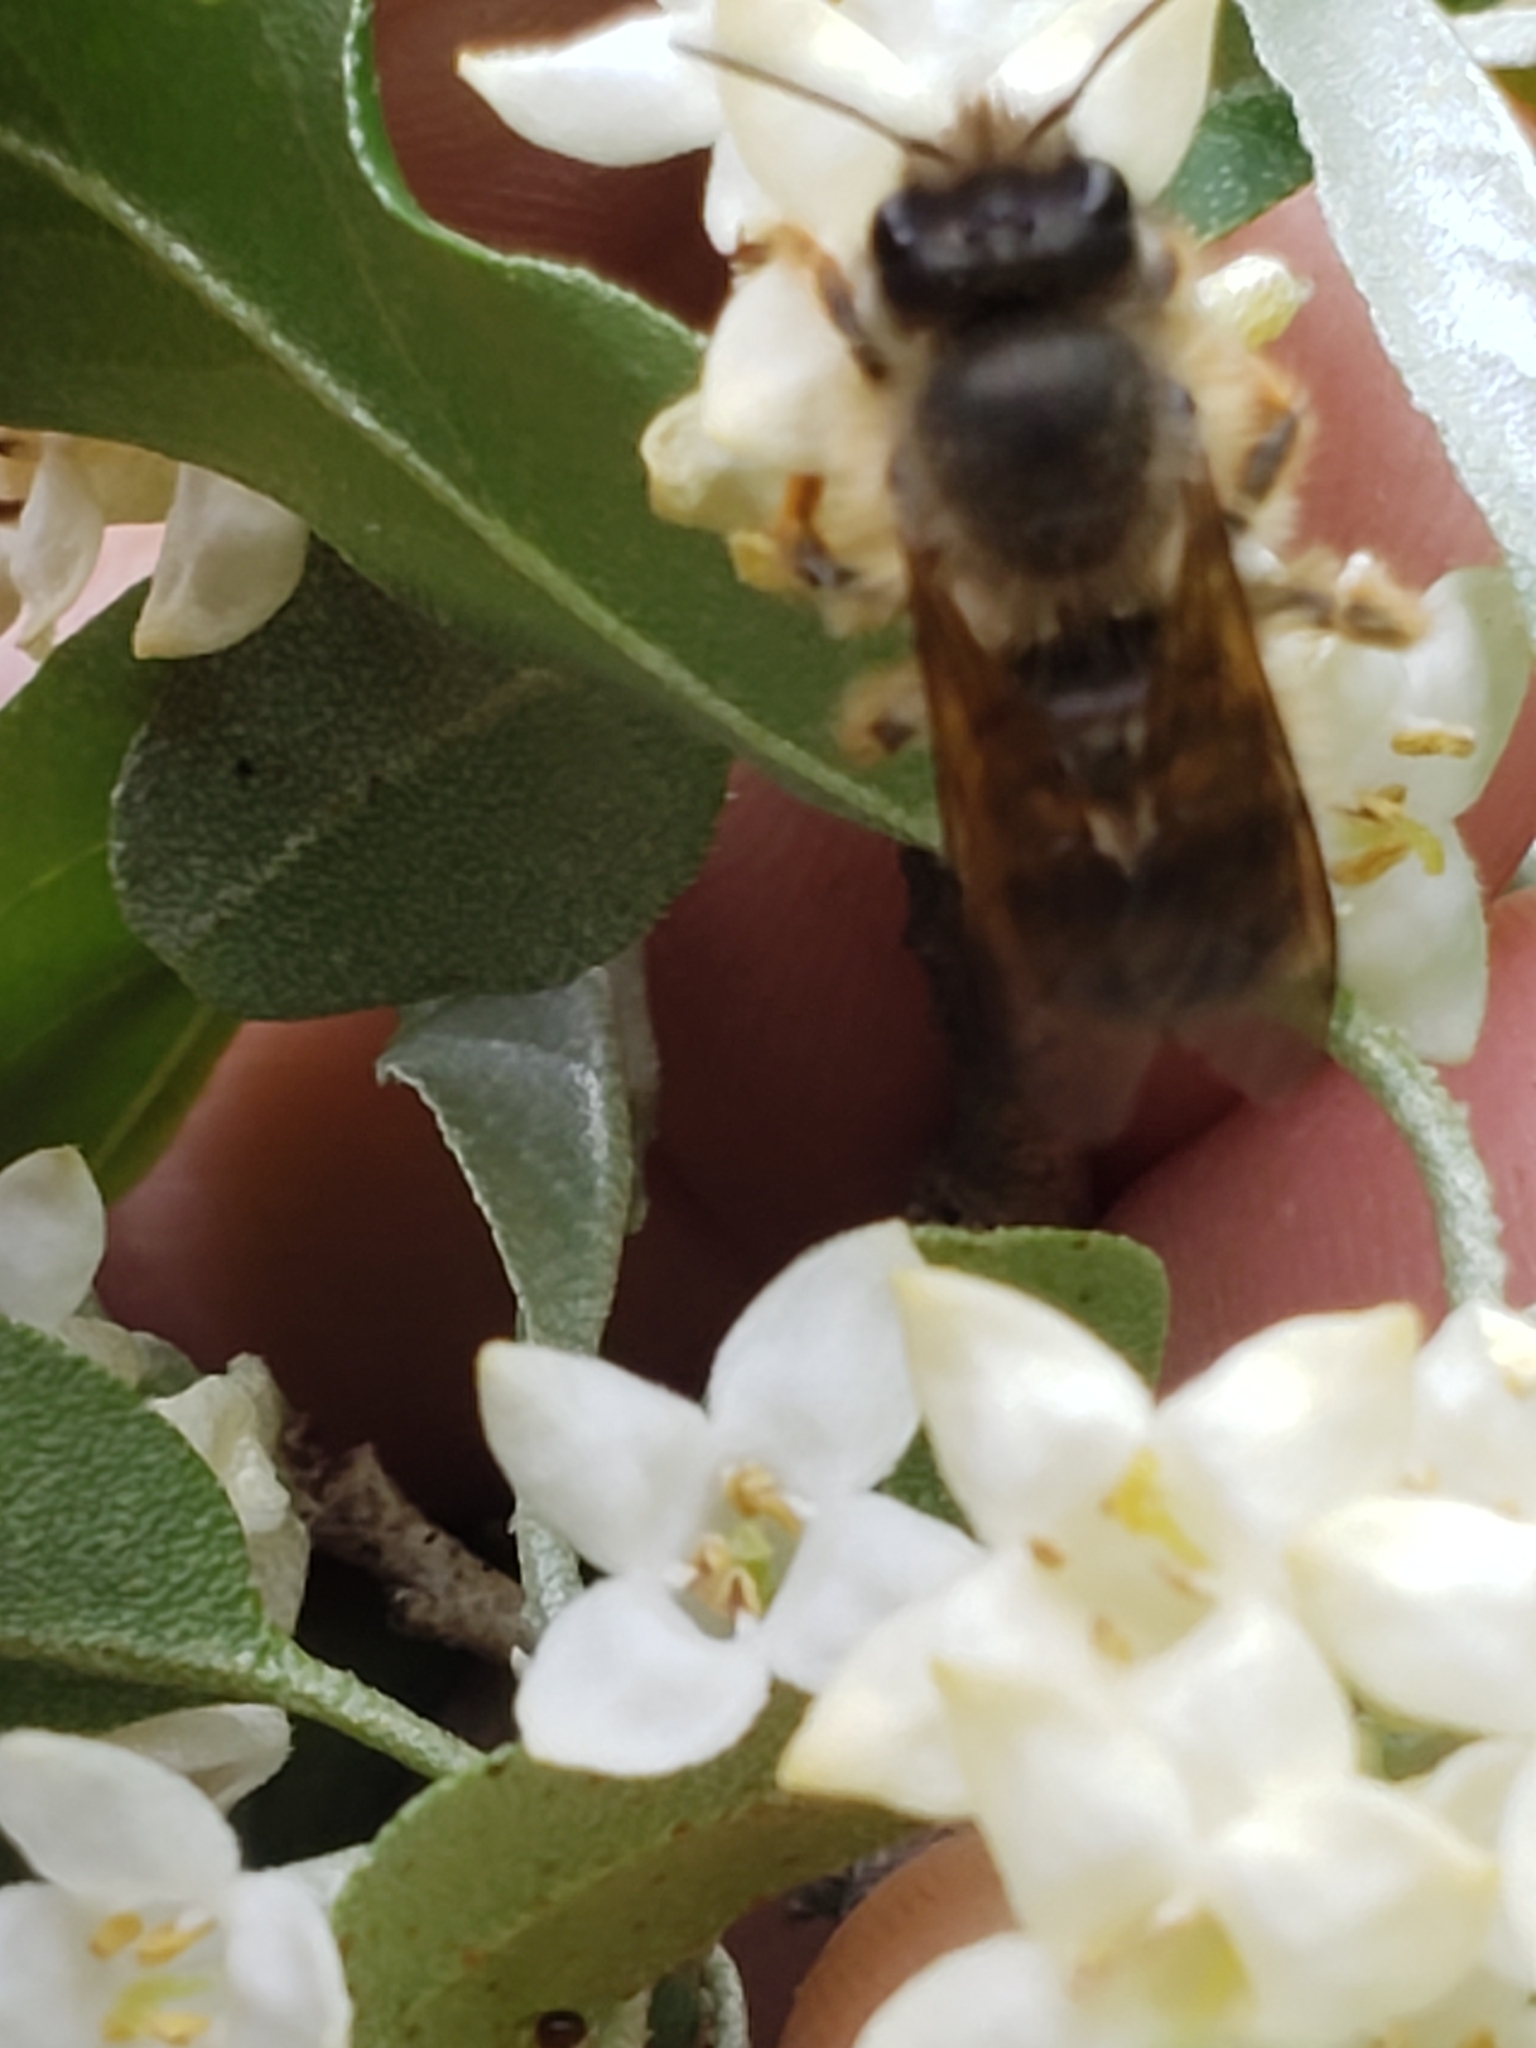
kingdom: Animalia
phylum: Arthropoda
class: Insecta
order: Hymenoptera
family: Megachilidae
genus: Osmia
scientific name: Osmia taurus
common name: Taurus mason bee
